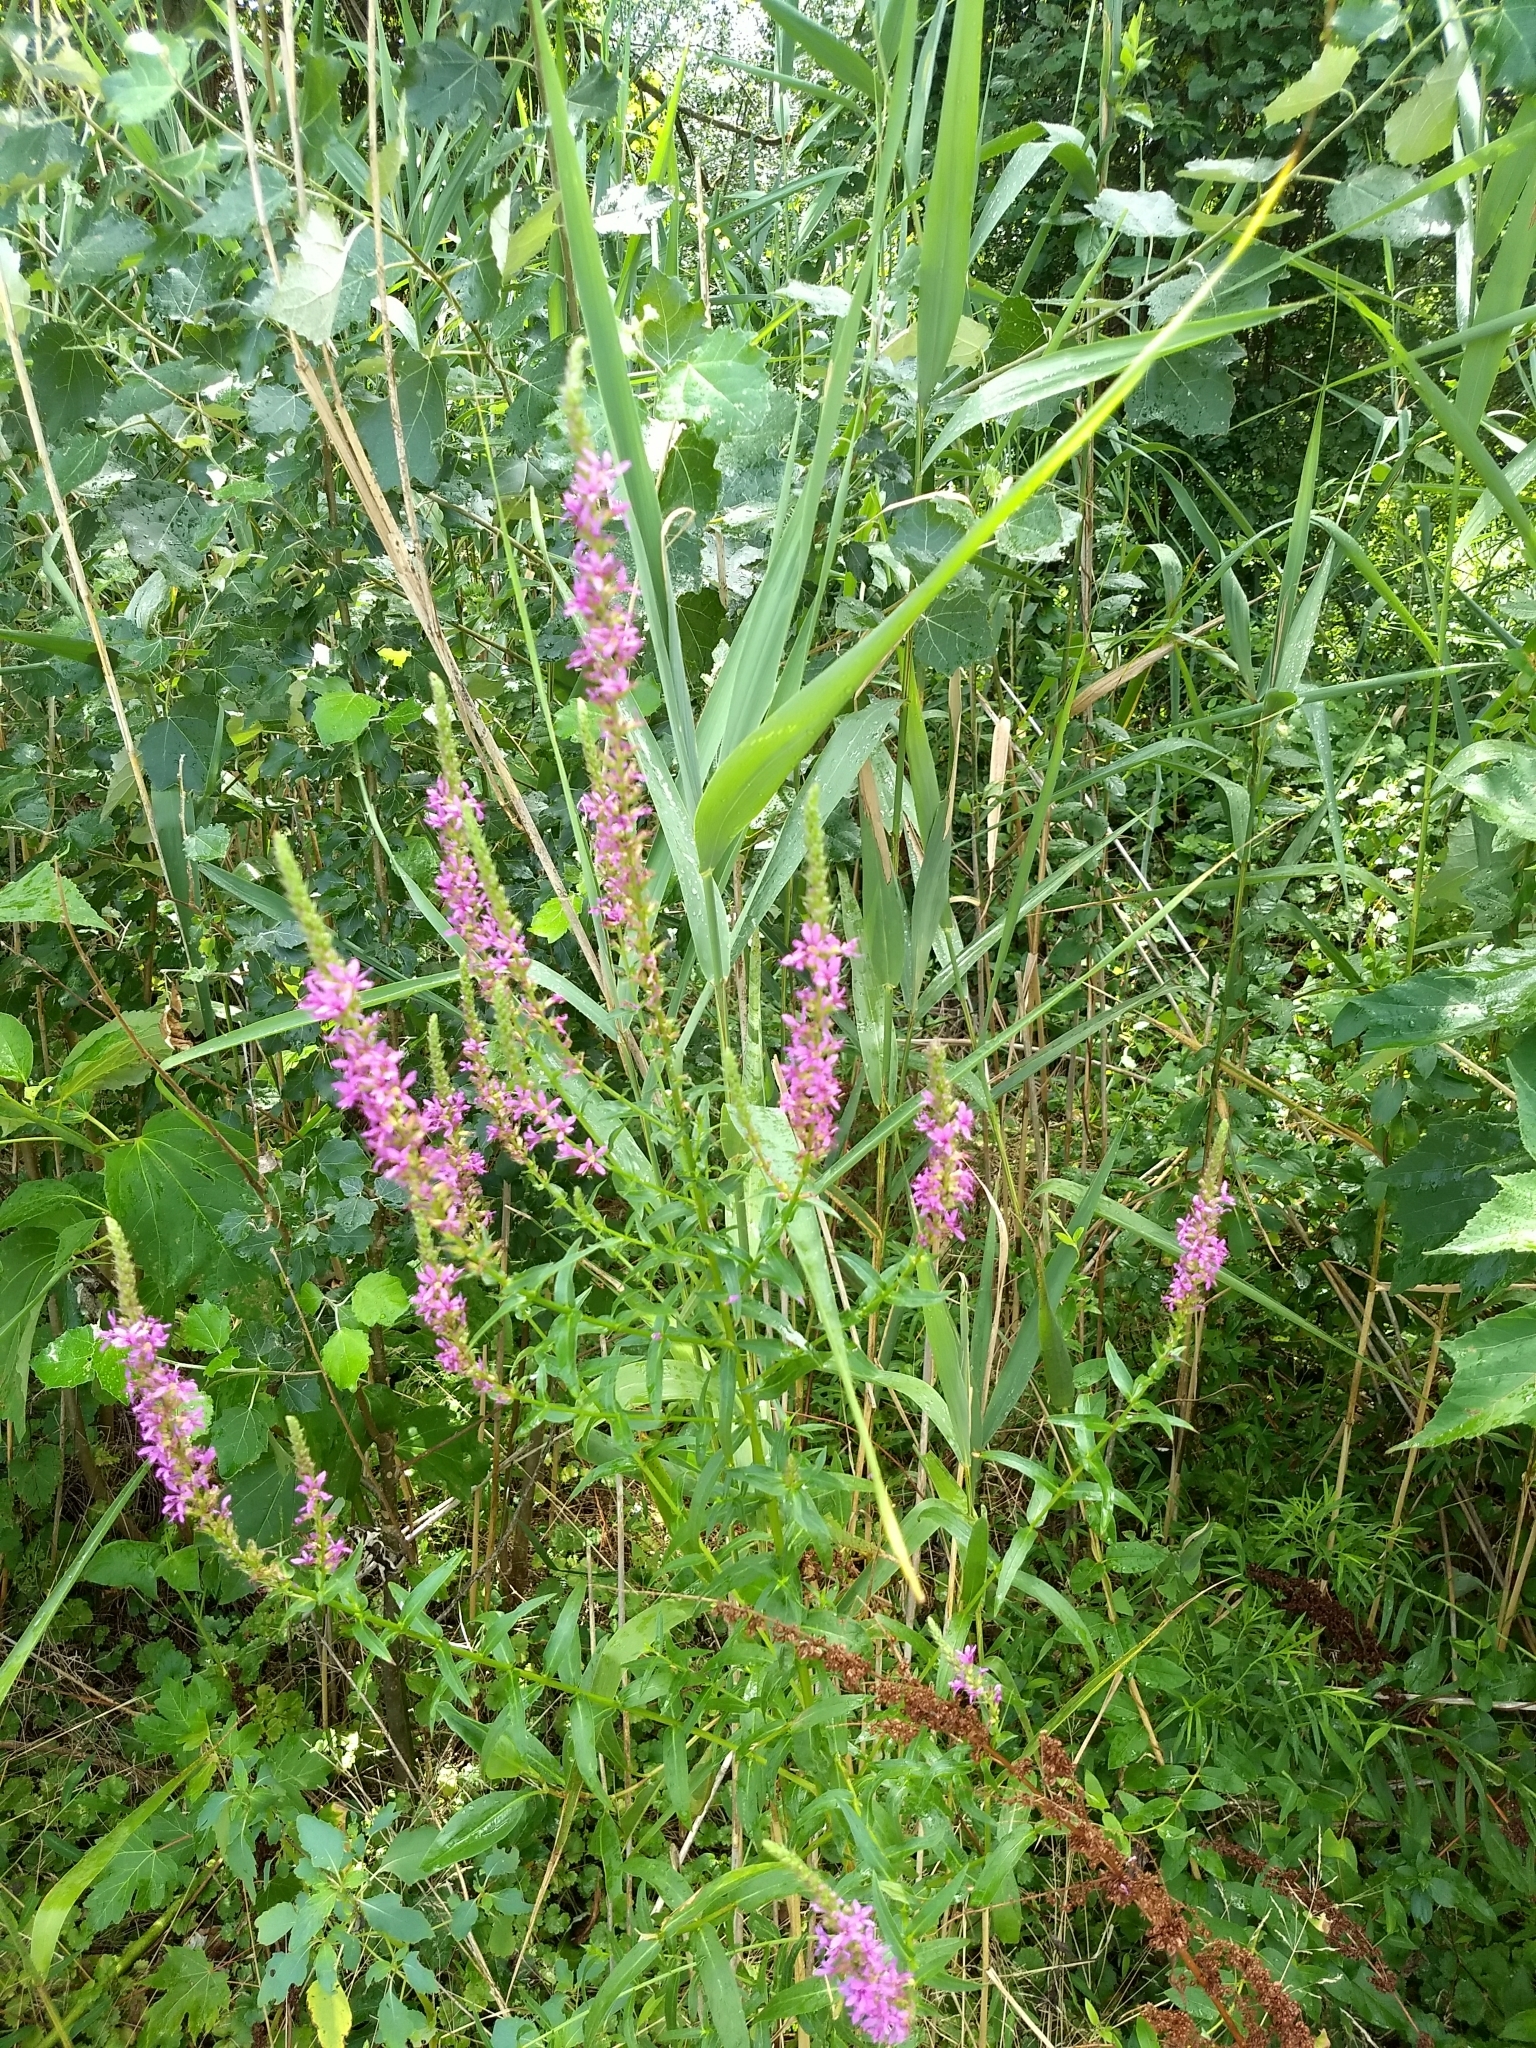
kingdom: Plantae
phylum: Tracheophyta
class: Magnoliopsida
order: Myrtales
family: Lythraceae
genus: Lythrum
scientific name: Lythrum salicaria
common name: Purple loosestrife
